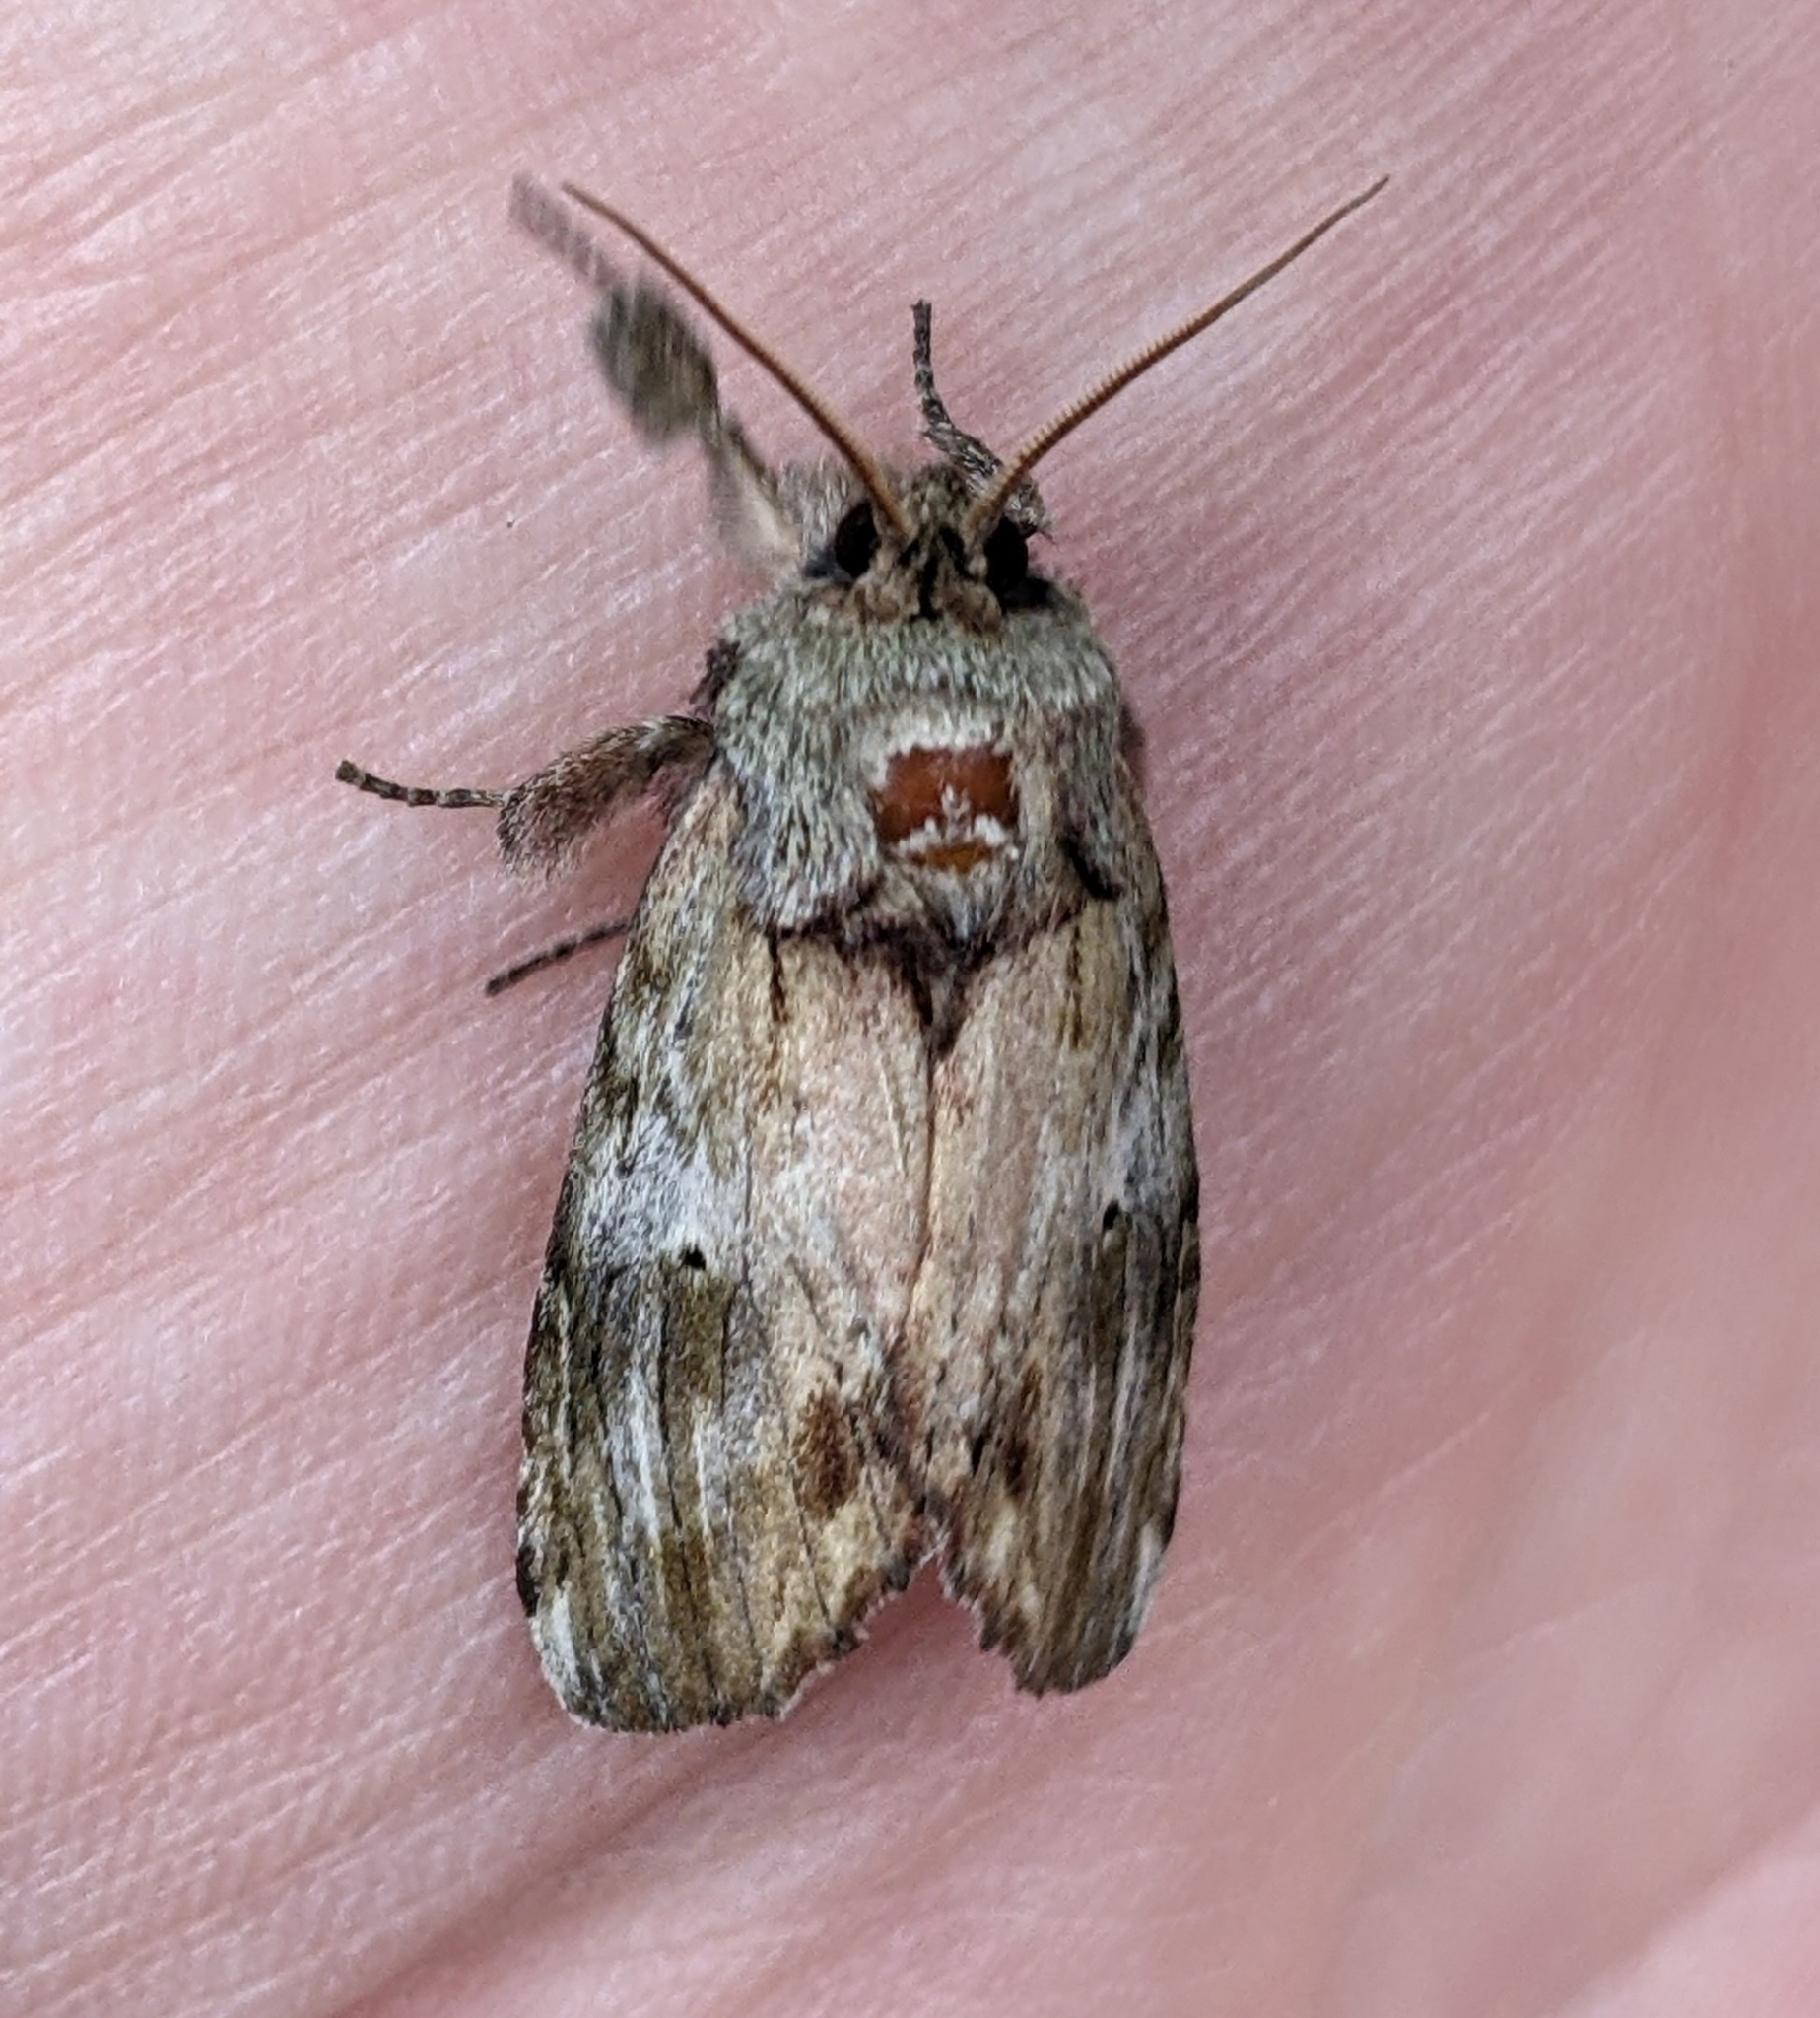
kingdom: Animalia
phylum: Arthropoda
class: Insecta
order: Lepidoptera
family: Notodontidae
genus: Schizura
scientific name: Schizura
